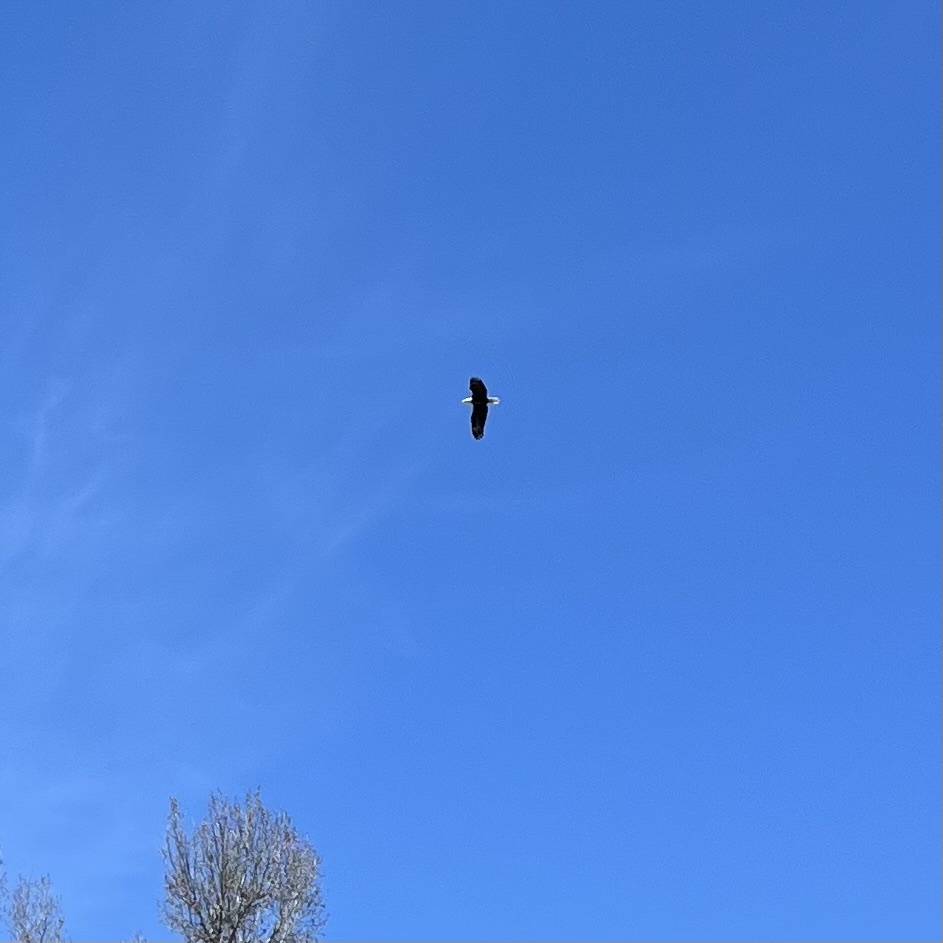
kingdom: Animalia
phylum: Chordata
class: Aves
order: Accipitriformes
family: Accipitridae
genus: Haliaeetus
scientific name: Haliaeetus leucocephalus
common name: Bald eagle
